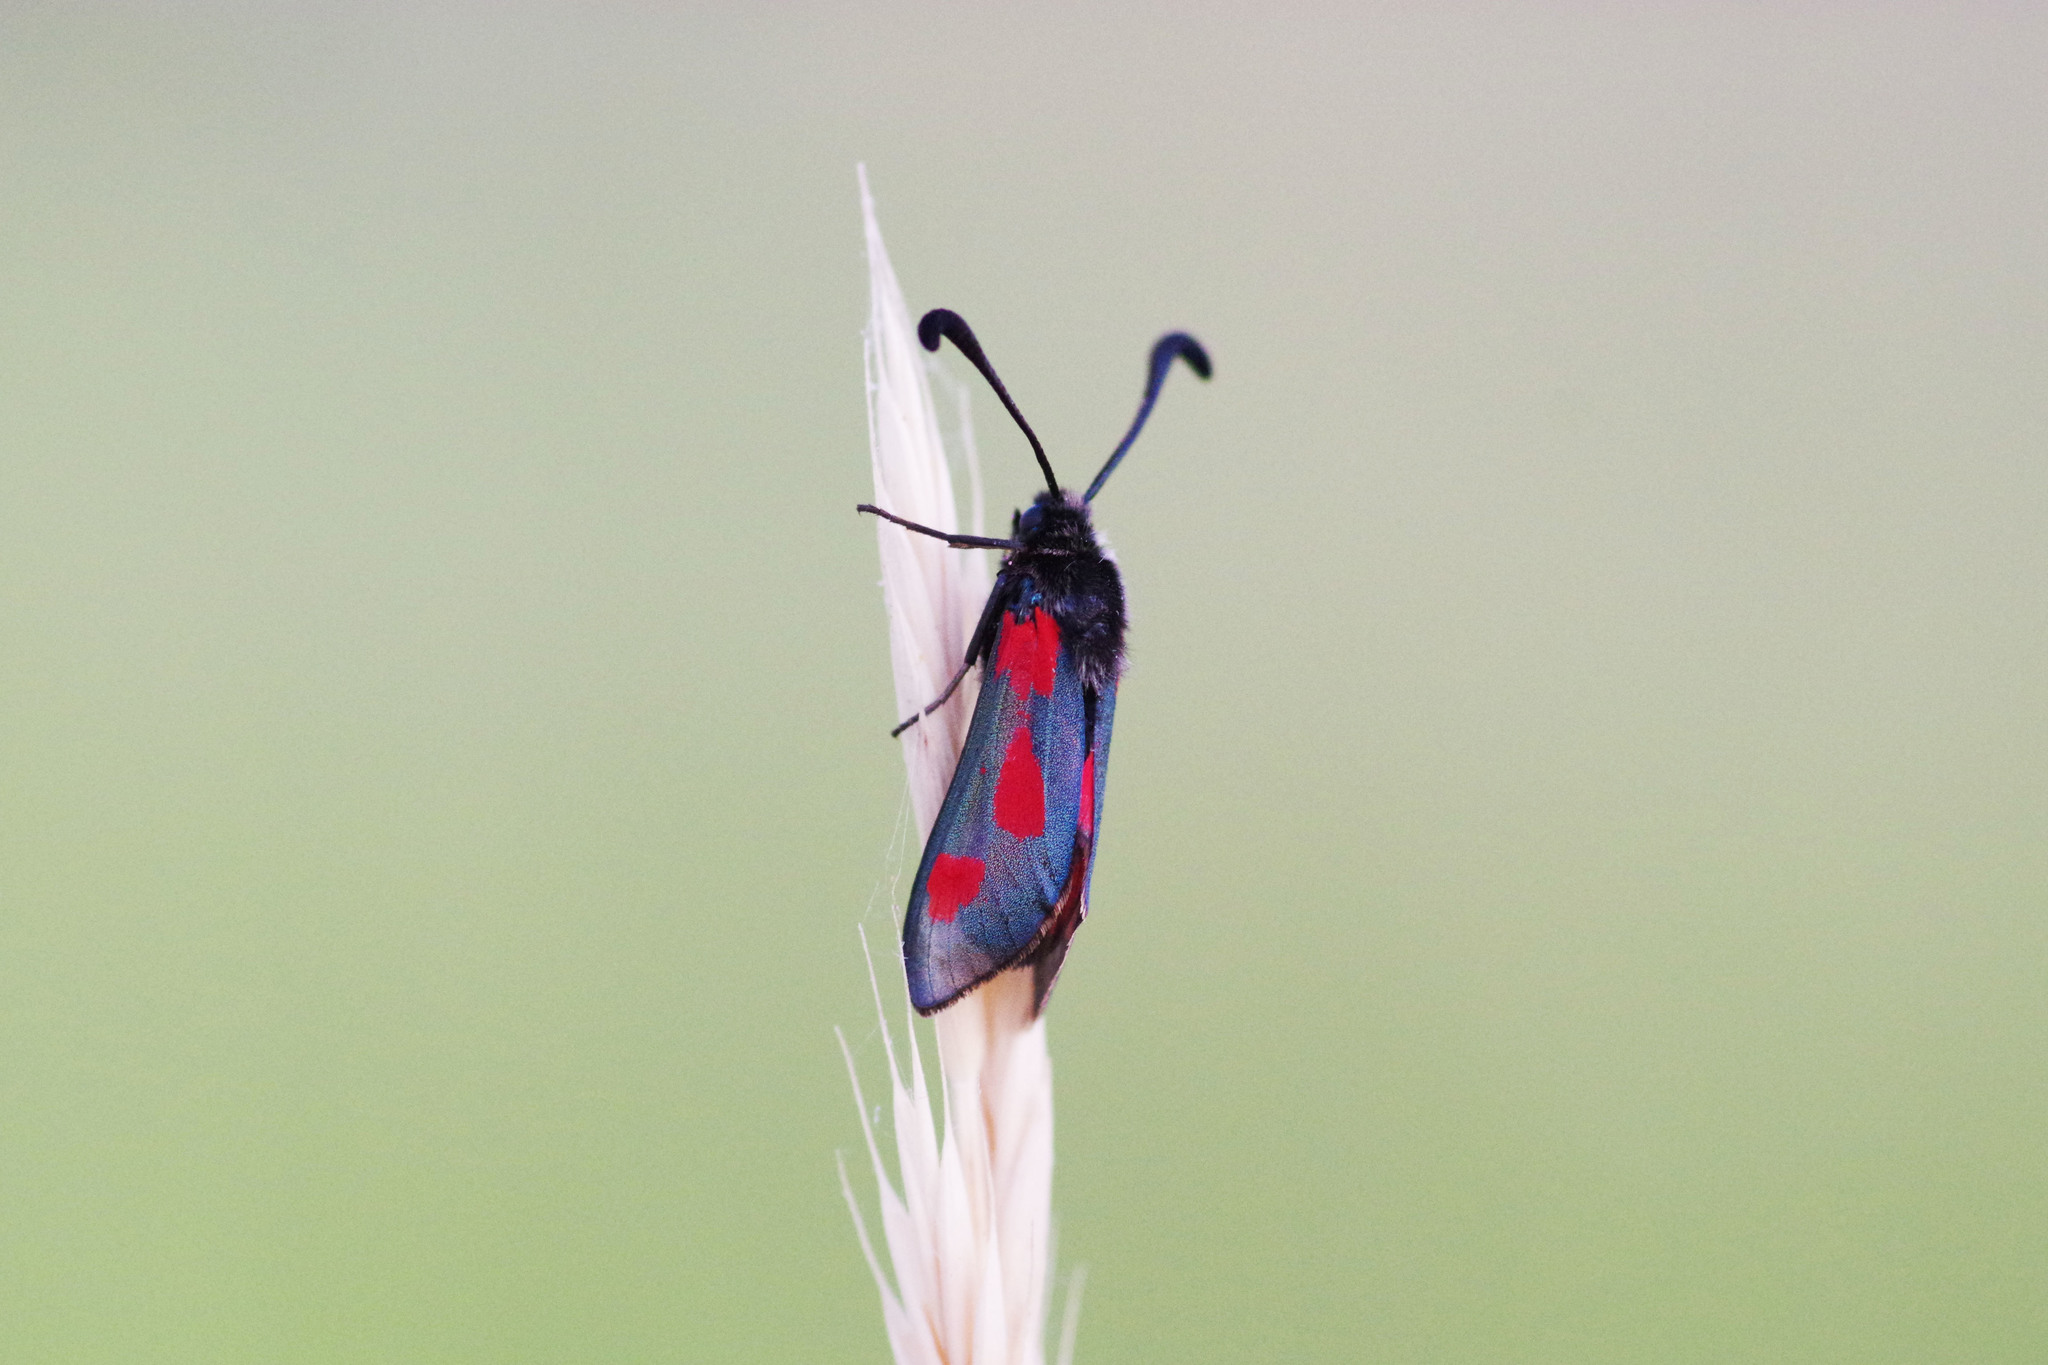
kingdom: Animalia
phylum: Arthropoda
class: Insecta
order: Lepidoptera
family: Zygaenidae
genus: Zygaena
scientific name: Zygaena sarpedon
